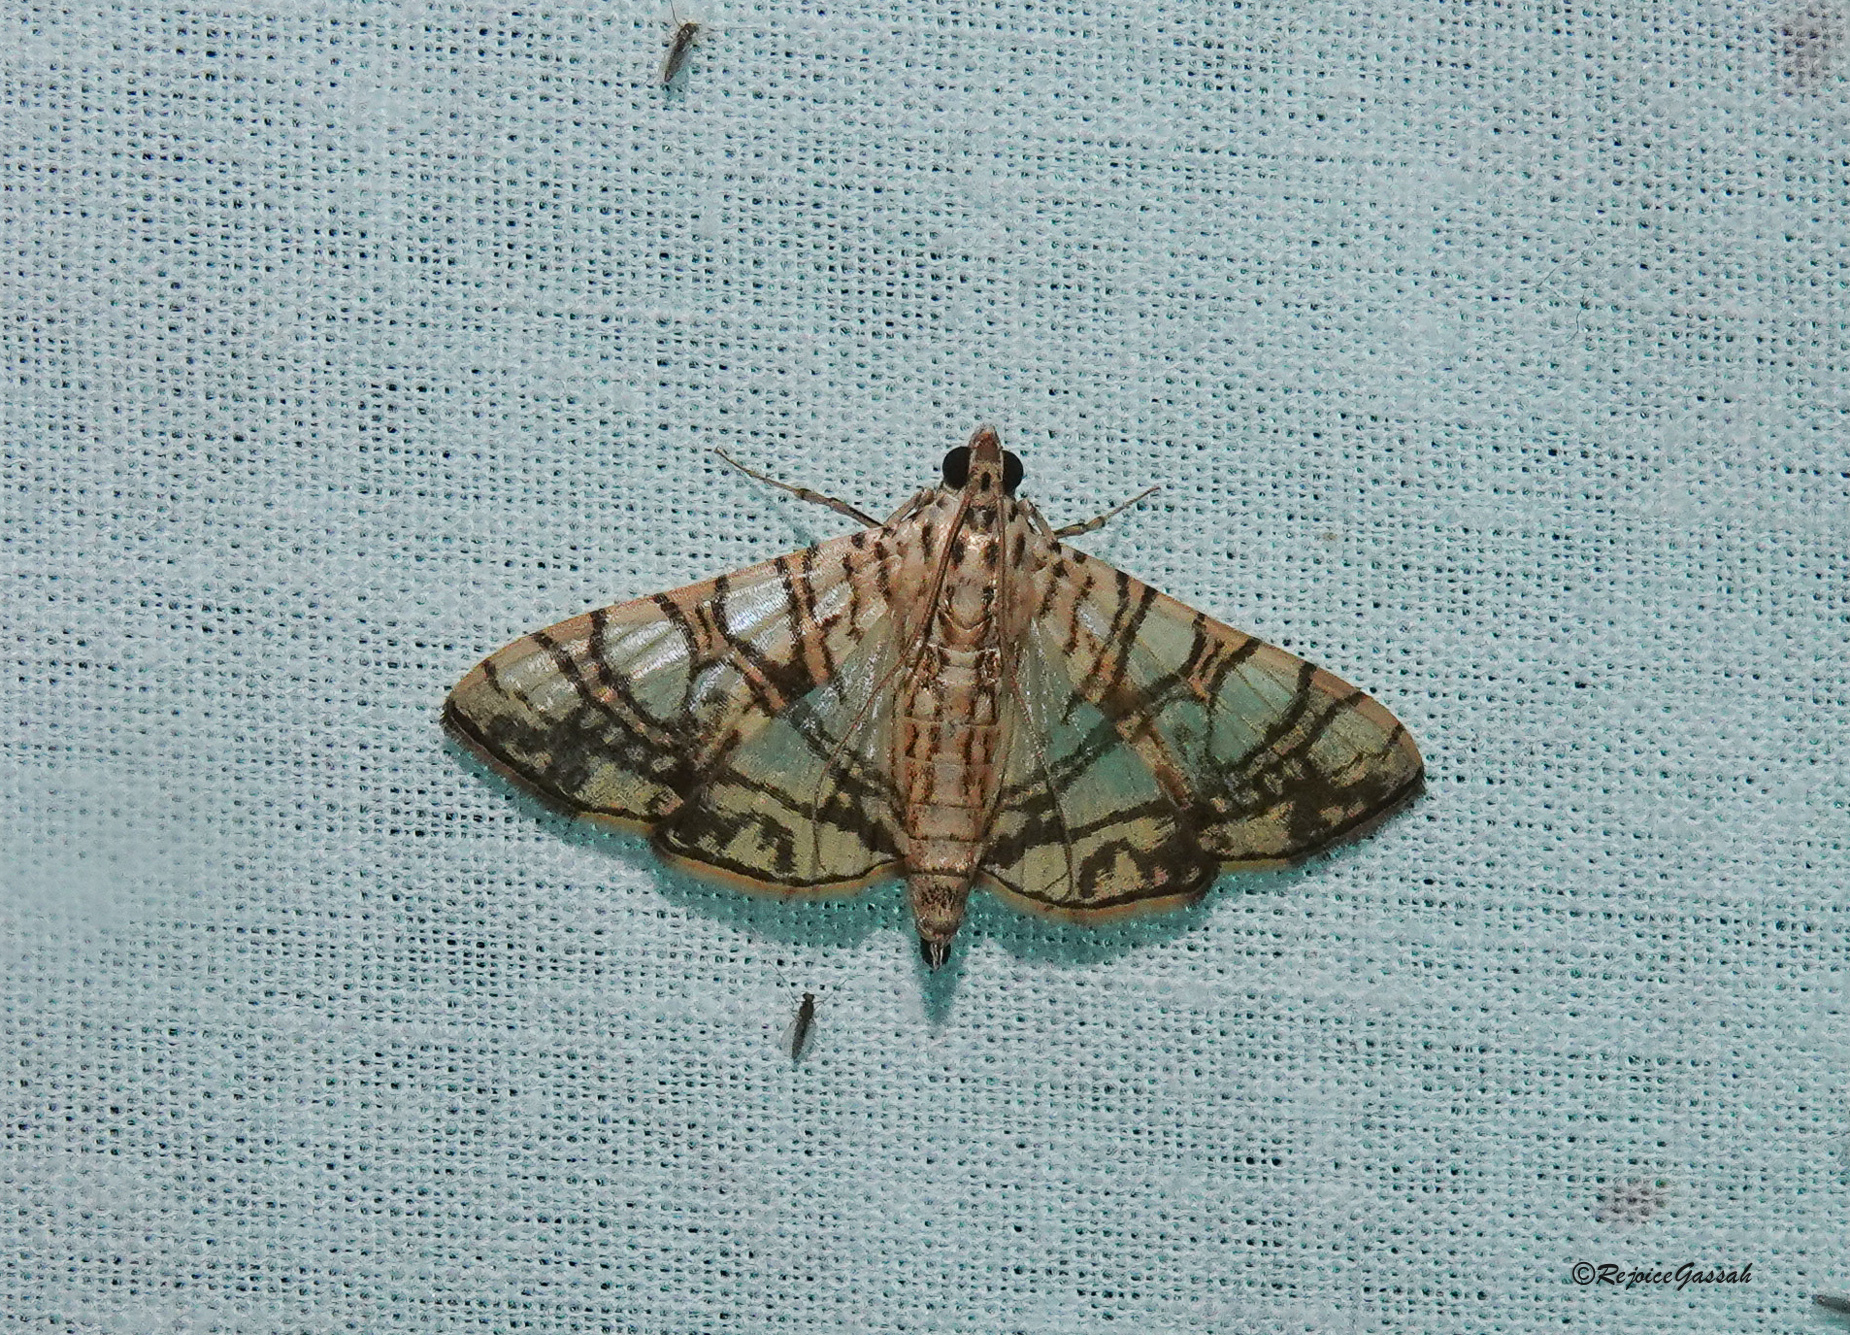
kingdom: Animalia
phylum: Arthropoda
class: Insecta
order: Lepidoptera
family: Crambidae
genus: Glyphodes
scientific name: Glyphodes caesalis
